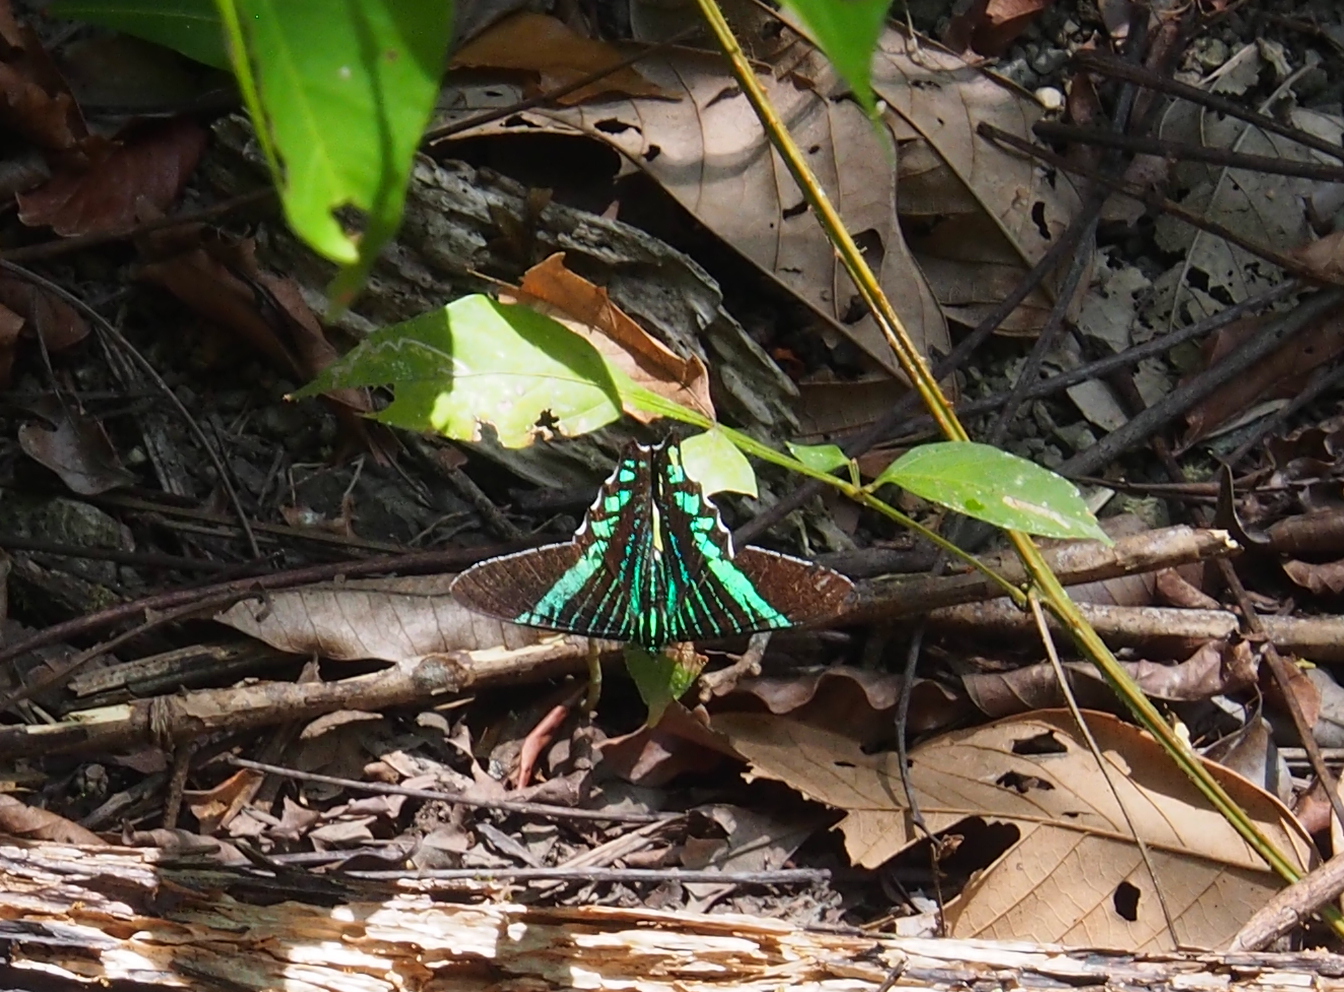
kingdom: Animalia
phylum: Arthropoda
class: Insecta
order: Lepidoptera
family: Uraniidae
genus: Urania
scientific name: Urania fulgens
